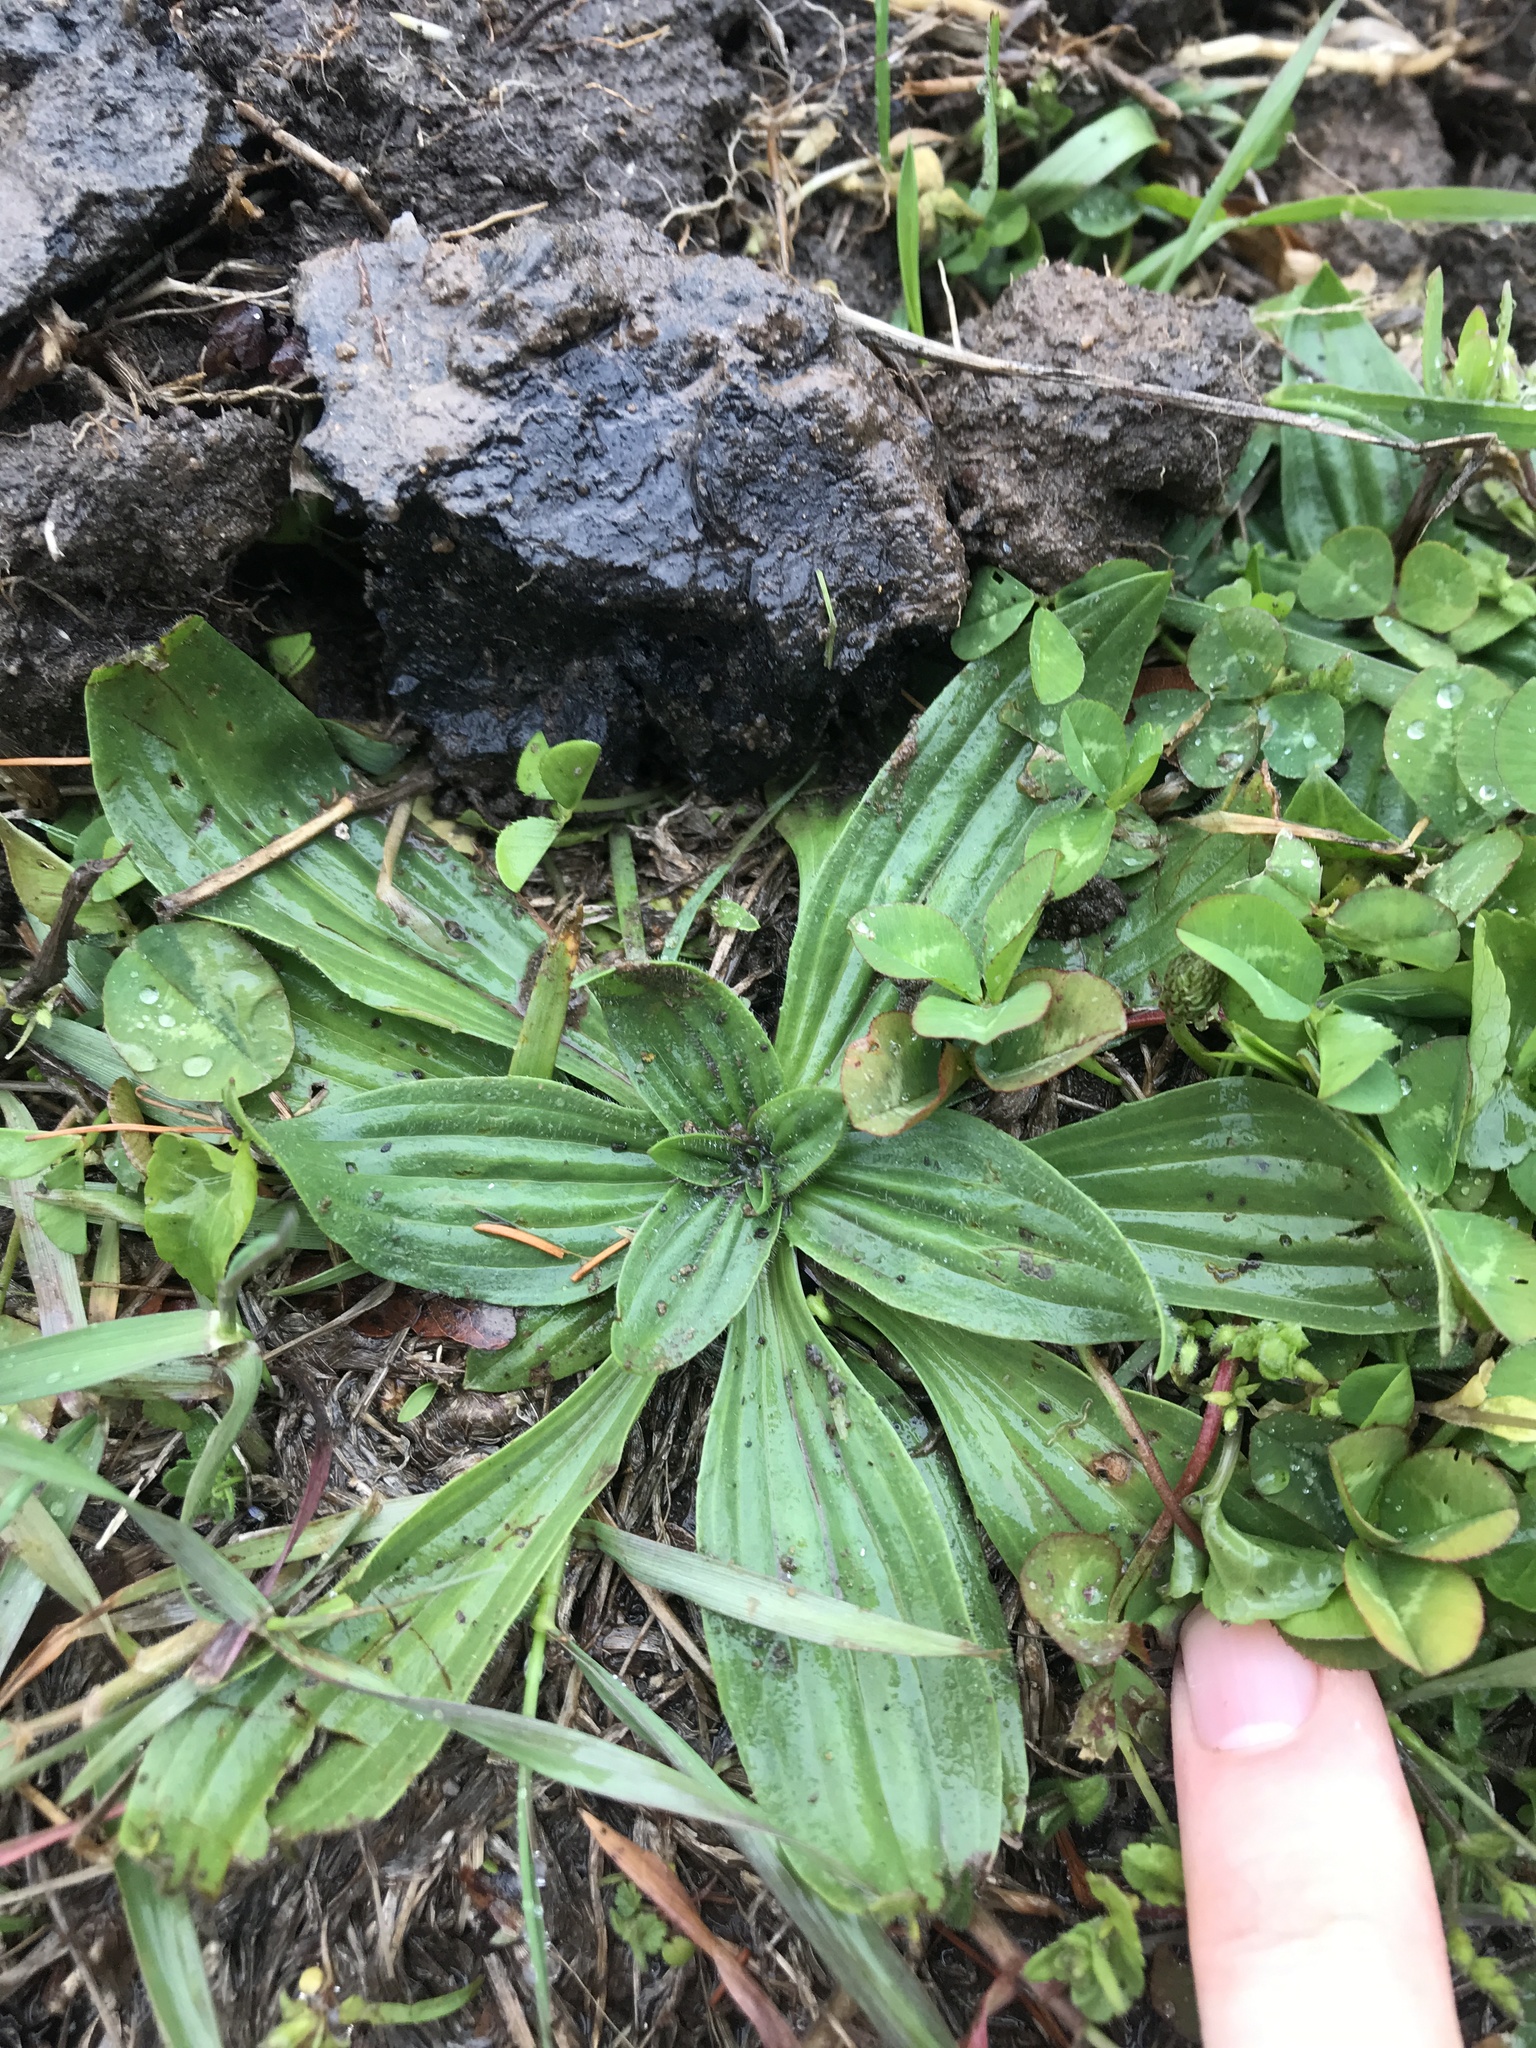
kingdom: Plantae
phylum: Tracheophyta
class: Magnoliopsida
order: Lamiales
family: Plantaginaceae
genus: Plantago
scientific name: Plantago lanceolata
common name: Ribwort plantain
